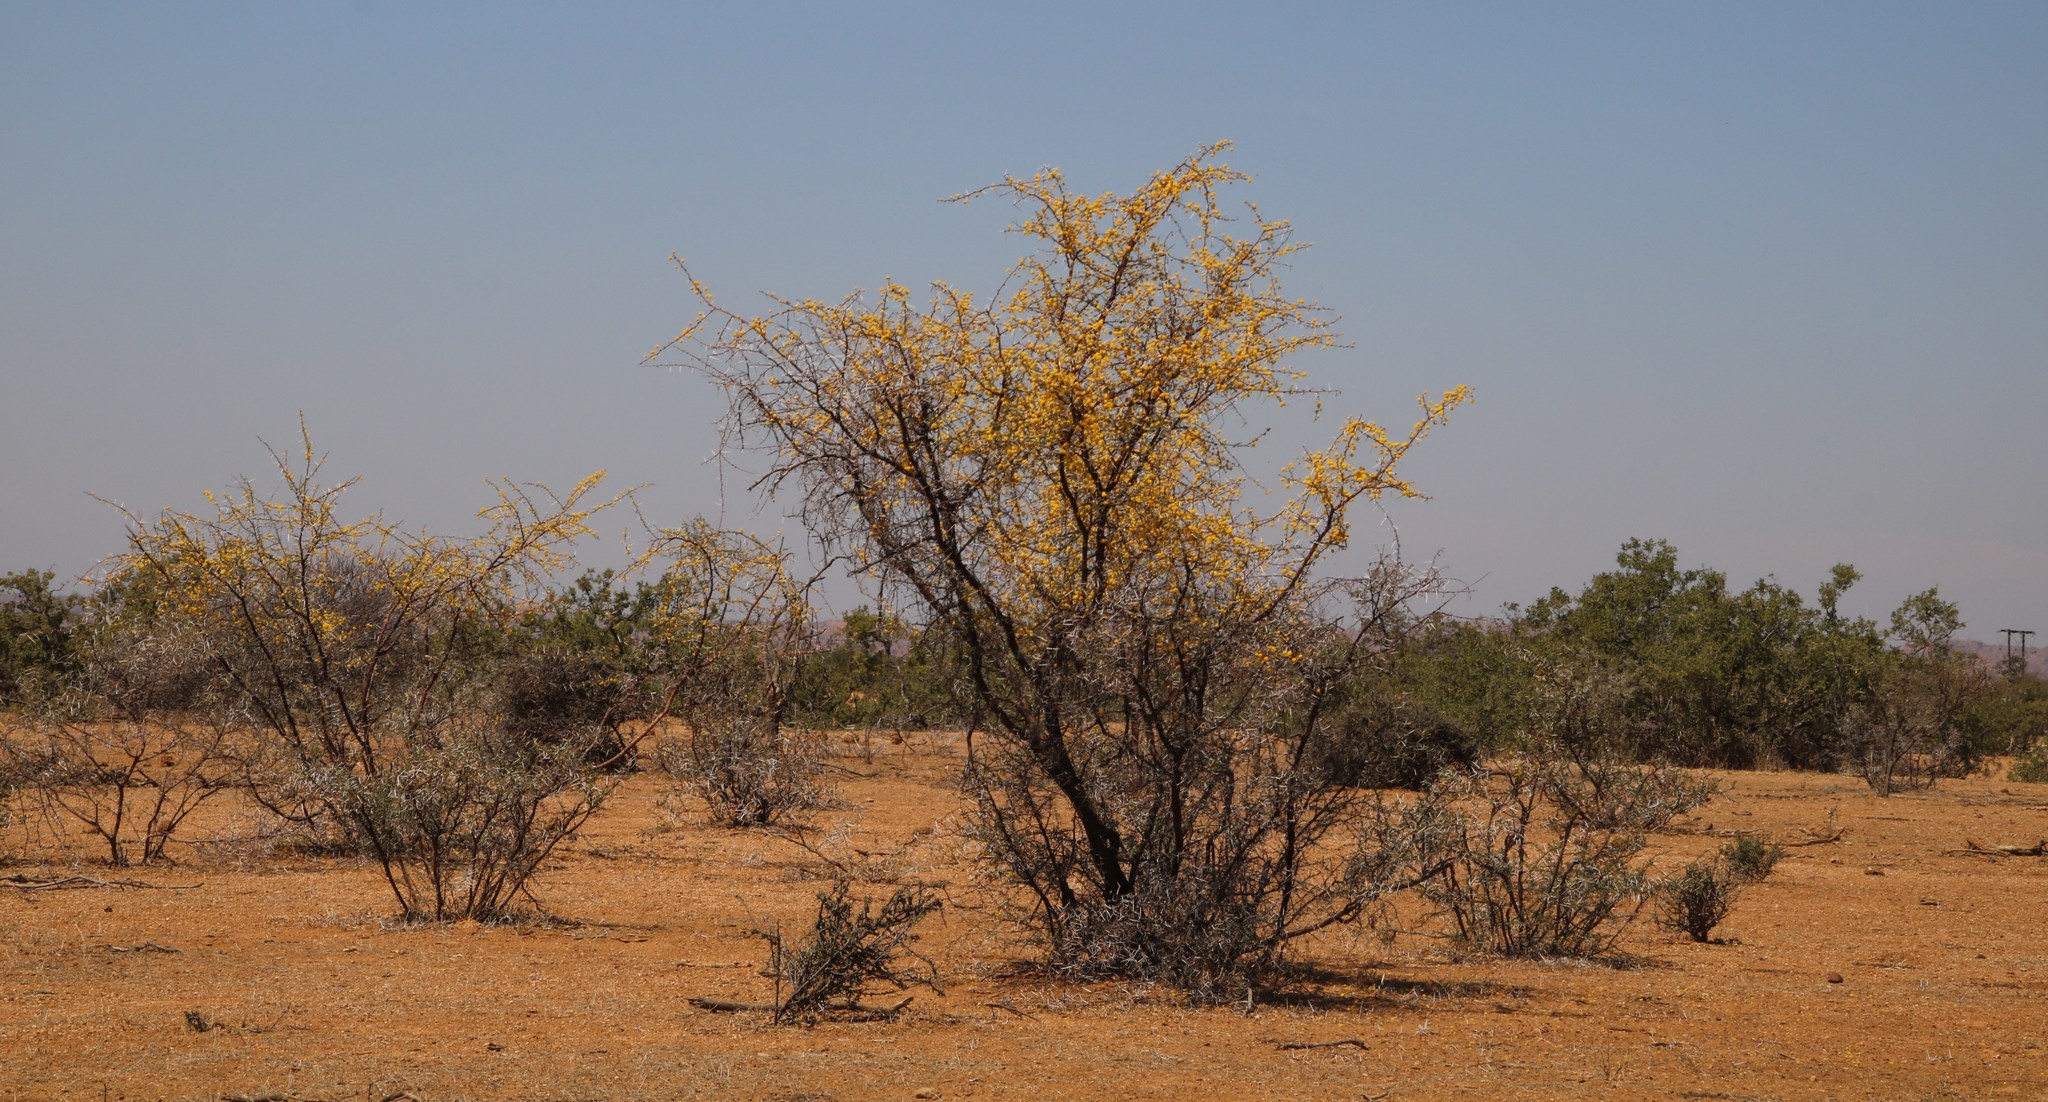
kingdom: Plantae
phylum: Tracheophyta
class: Magnoliopsida
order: Fabales
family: Fabaceae
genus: Vachellia
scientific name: Vachellia nebrownii
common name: Water acacia
